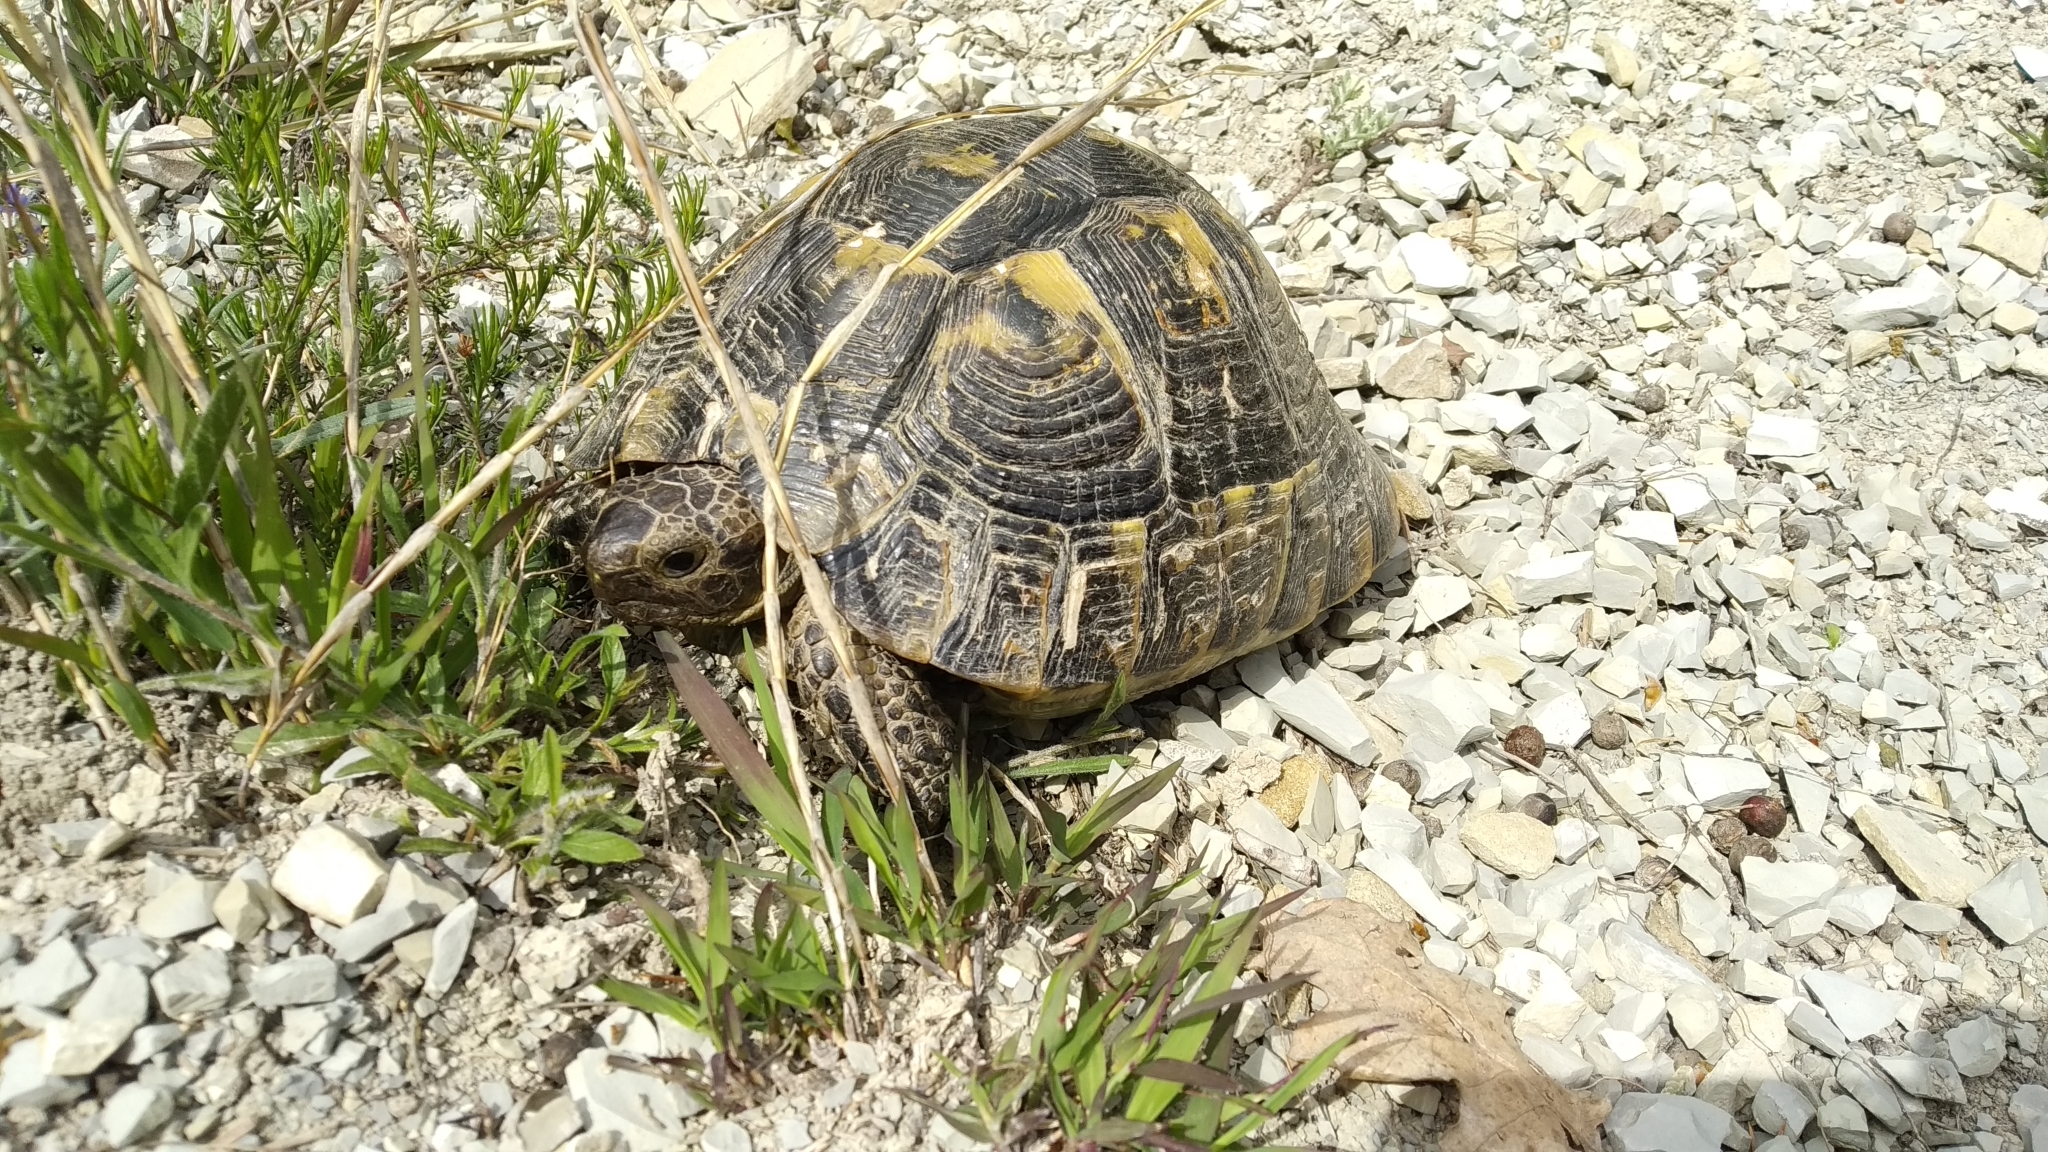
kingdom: Animalia
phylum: Chordata
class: Testudines
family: Testudinidae
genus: Testudo
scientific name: Testudo graeca
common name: Common tortoise
